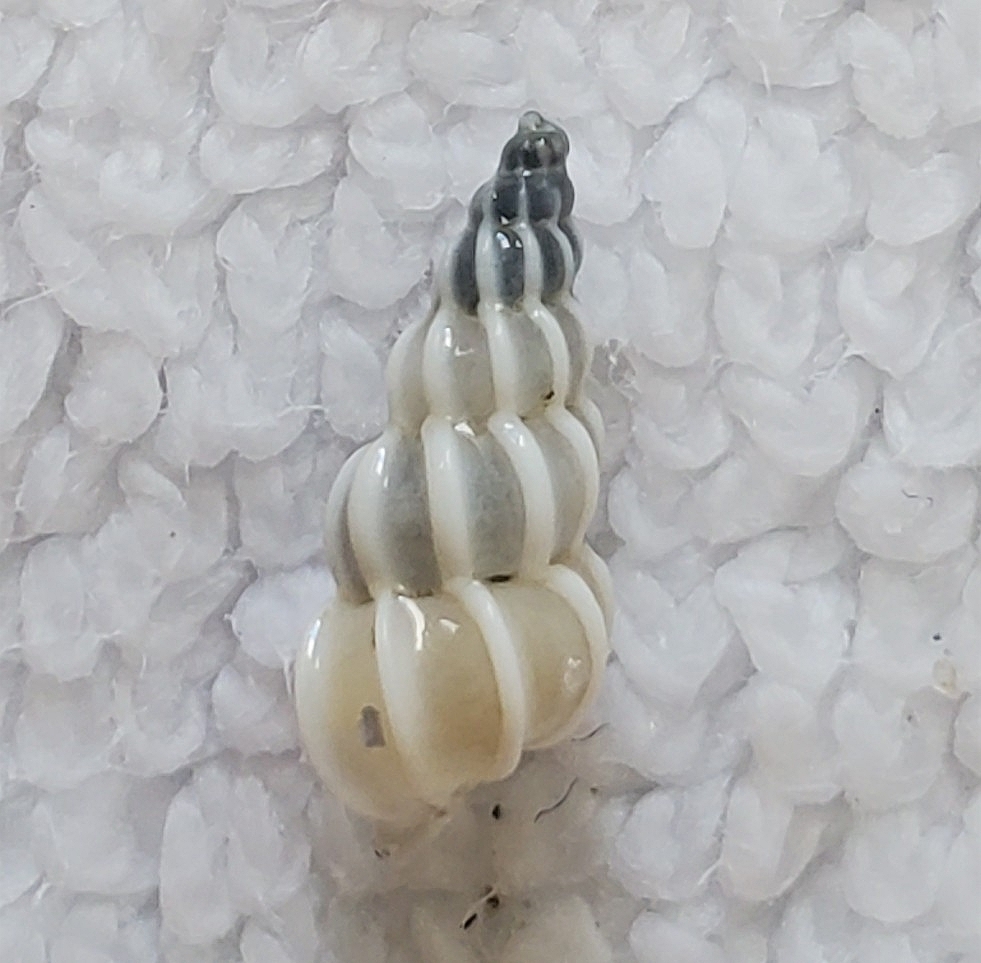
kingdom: Animalia
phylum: Mollusca
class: Gastropoda
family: Epitoniidae
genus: Epitonium
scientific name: Epitonium humphreysii
